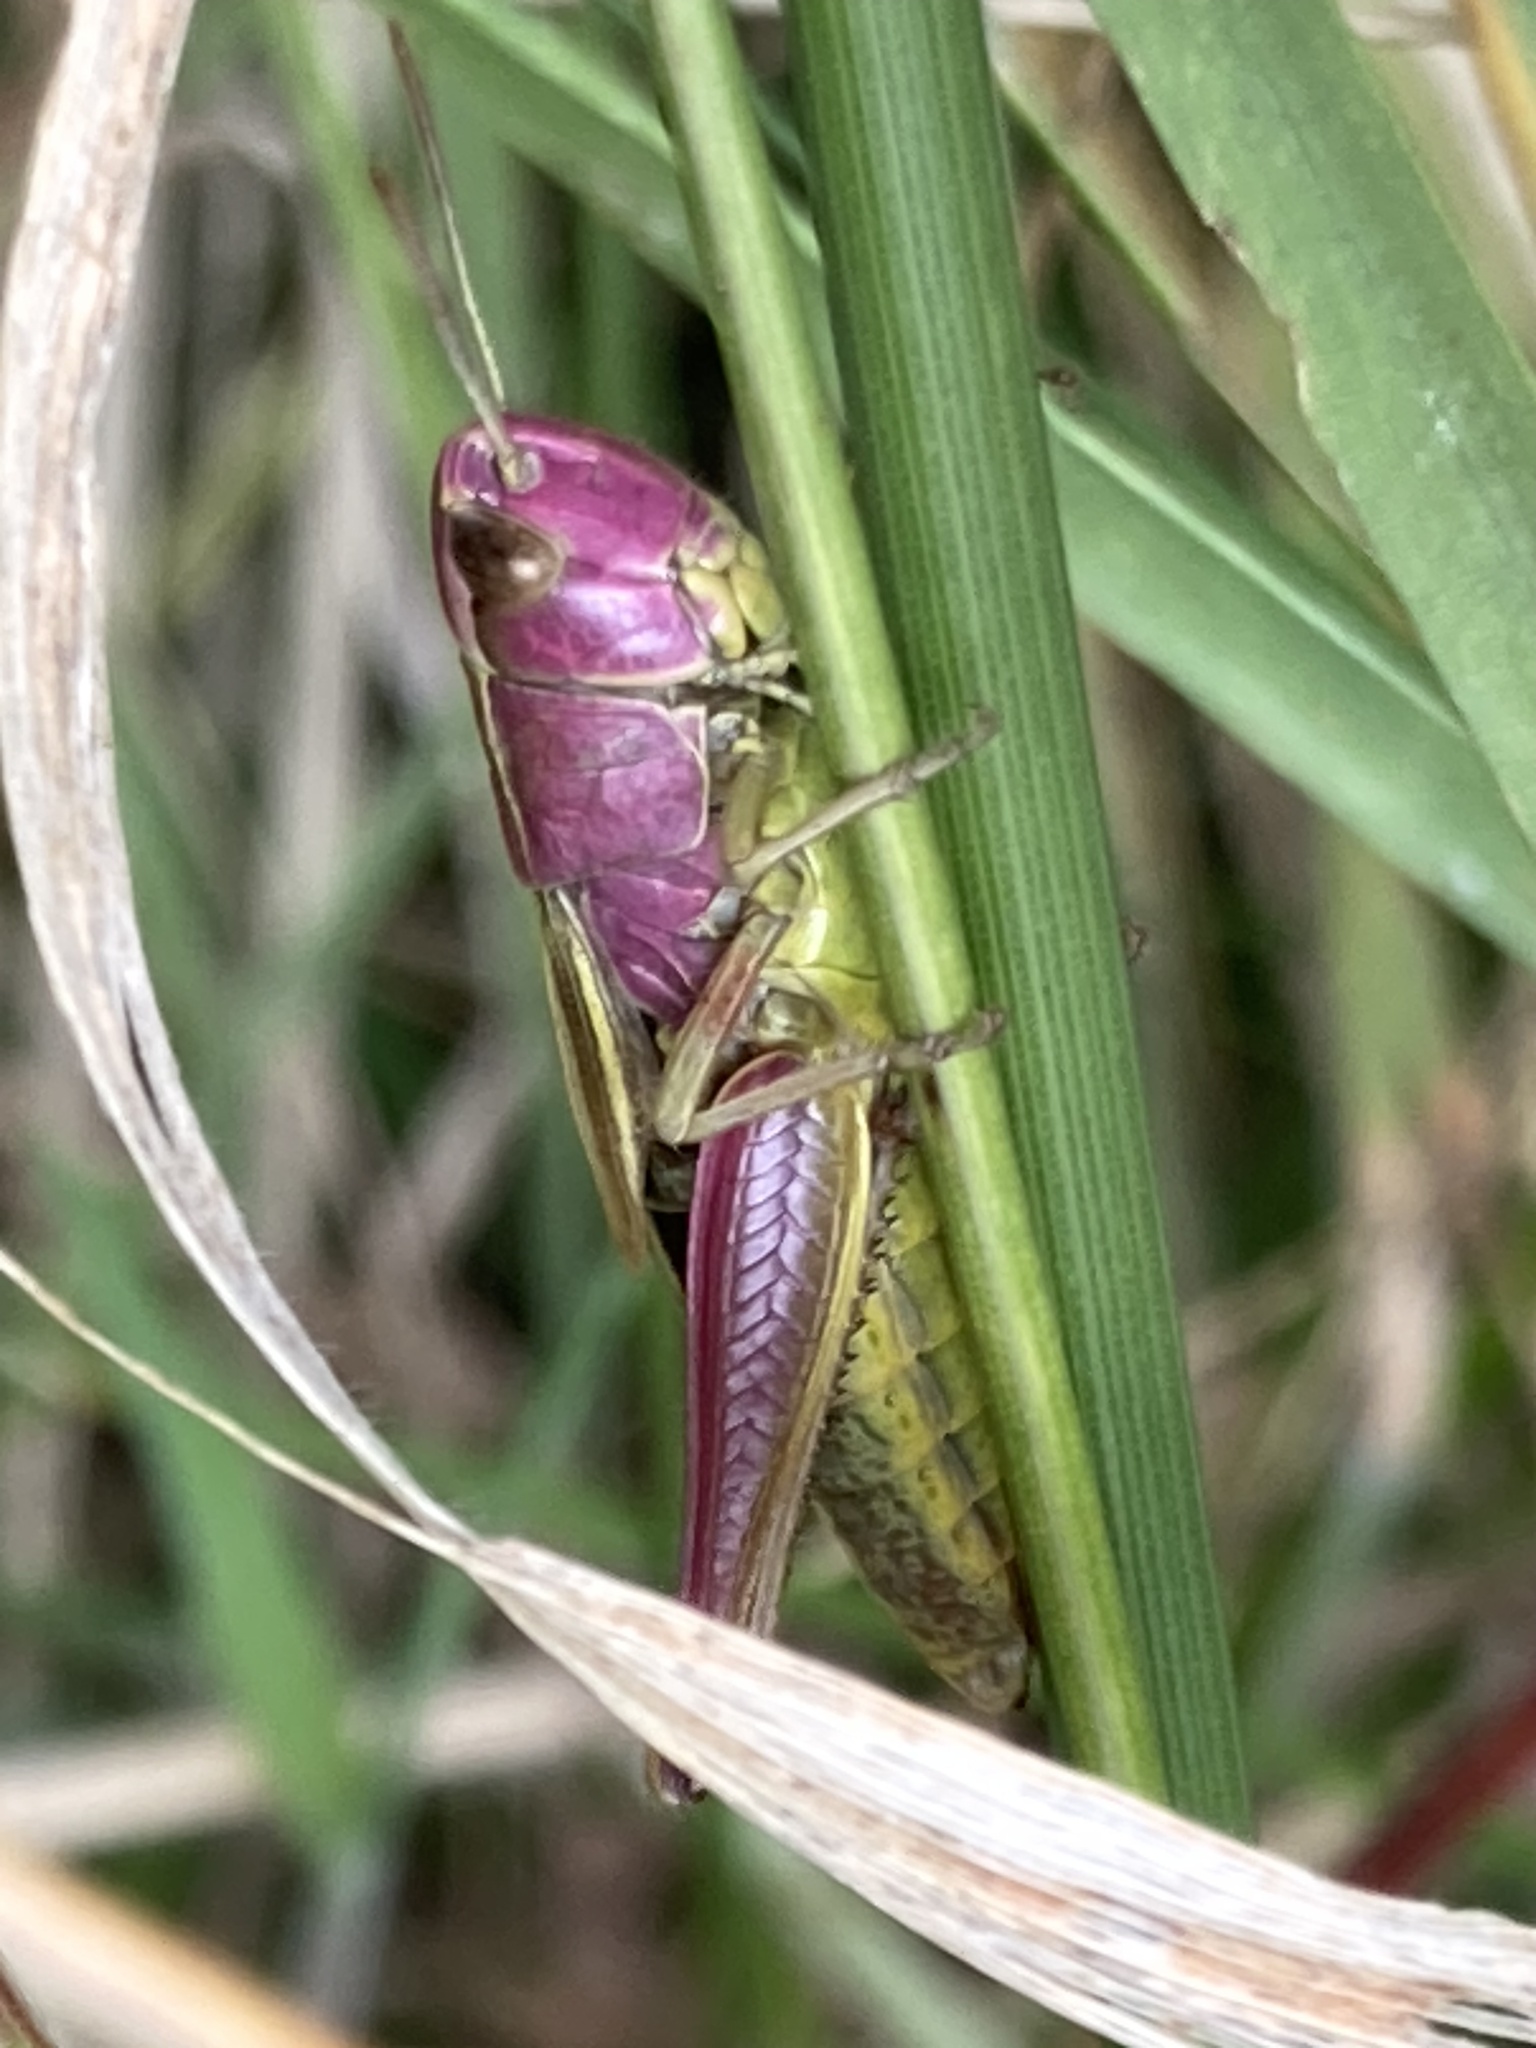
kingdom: Animalia
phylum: Arthropoda
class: Insecta
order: Orthoptera
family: Acrididae
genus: Pseudochorthippus
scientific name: Pseudochorthippus parallelus
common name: Meadow grasshopper
